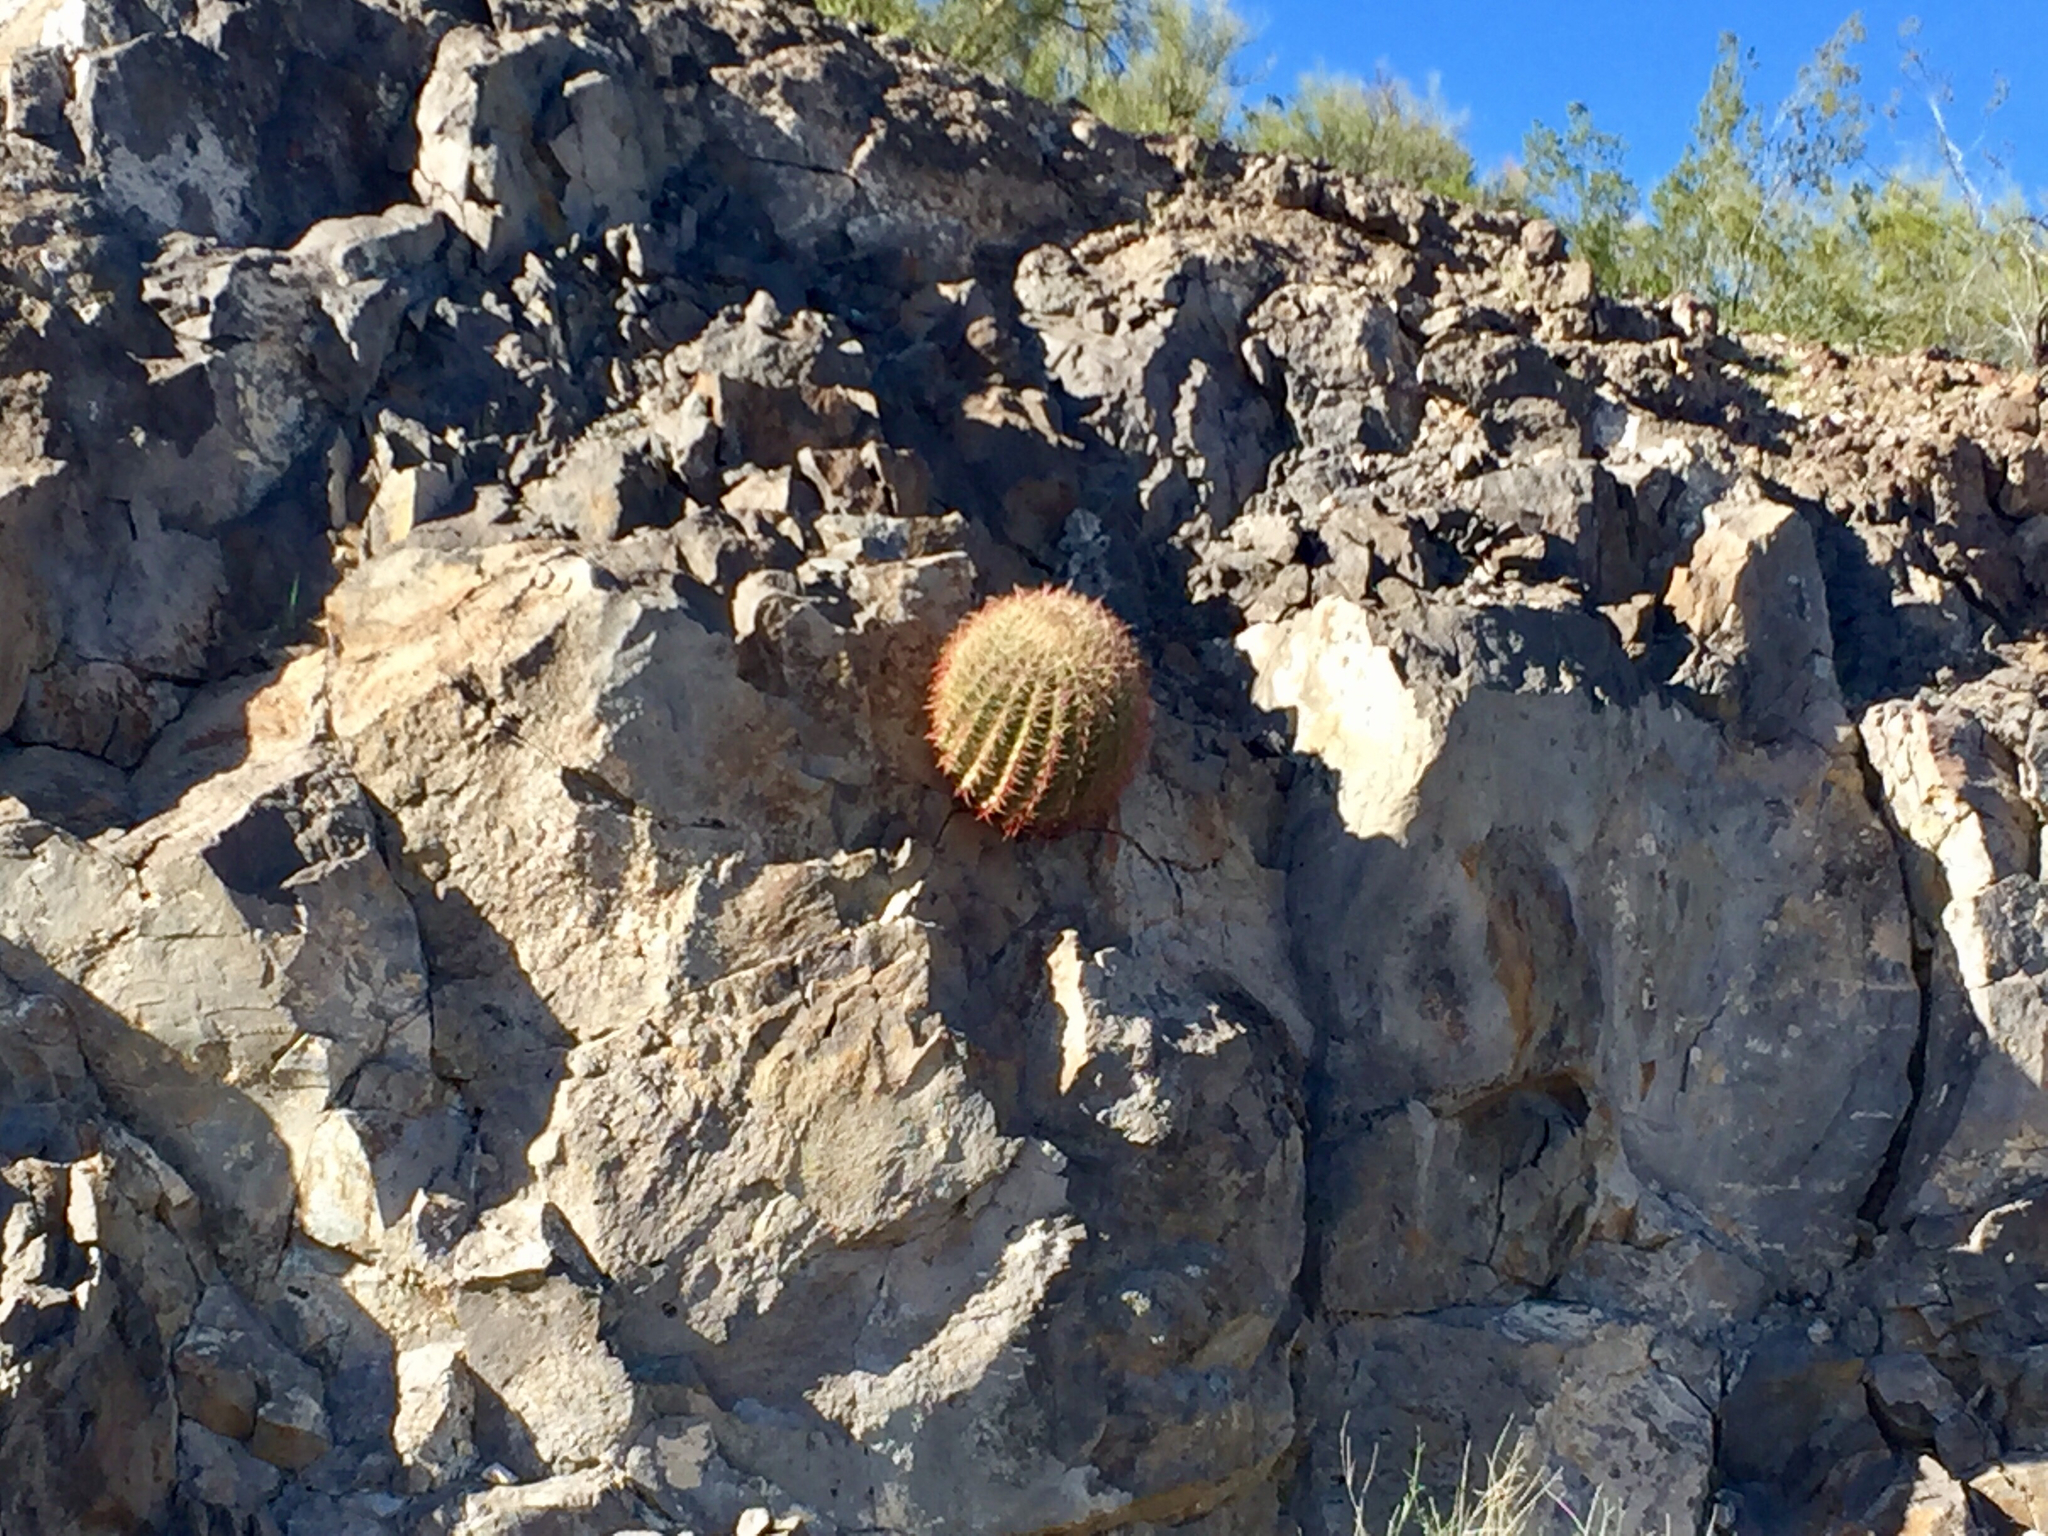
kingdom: Plantae
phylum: Tracheophyta
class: Magnoliopsida
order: Caryophyllales
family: Cactaceae
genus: Ferocactus
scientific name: Ferocactus cylindraceus
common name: California barrel cactus
